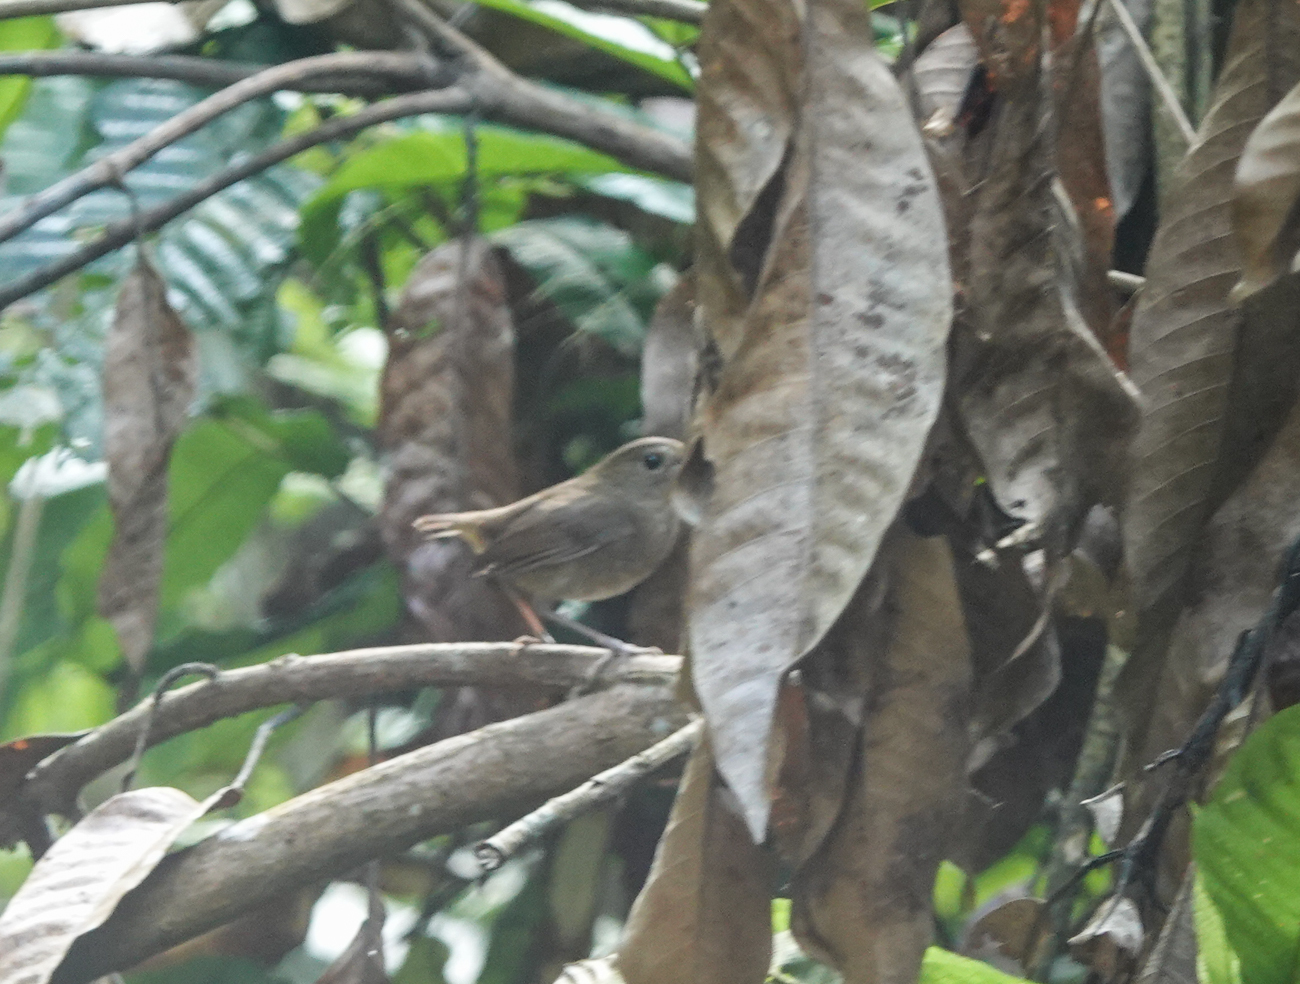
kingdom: Animalia
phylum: Chordata
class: Aves
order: Passeriformes
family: Muscicapidae
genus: Brachypteryx
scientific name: Brachypteryx leucophris
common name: Lesser shortwing
